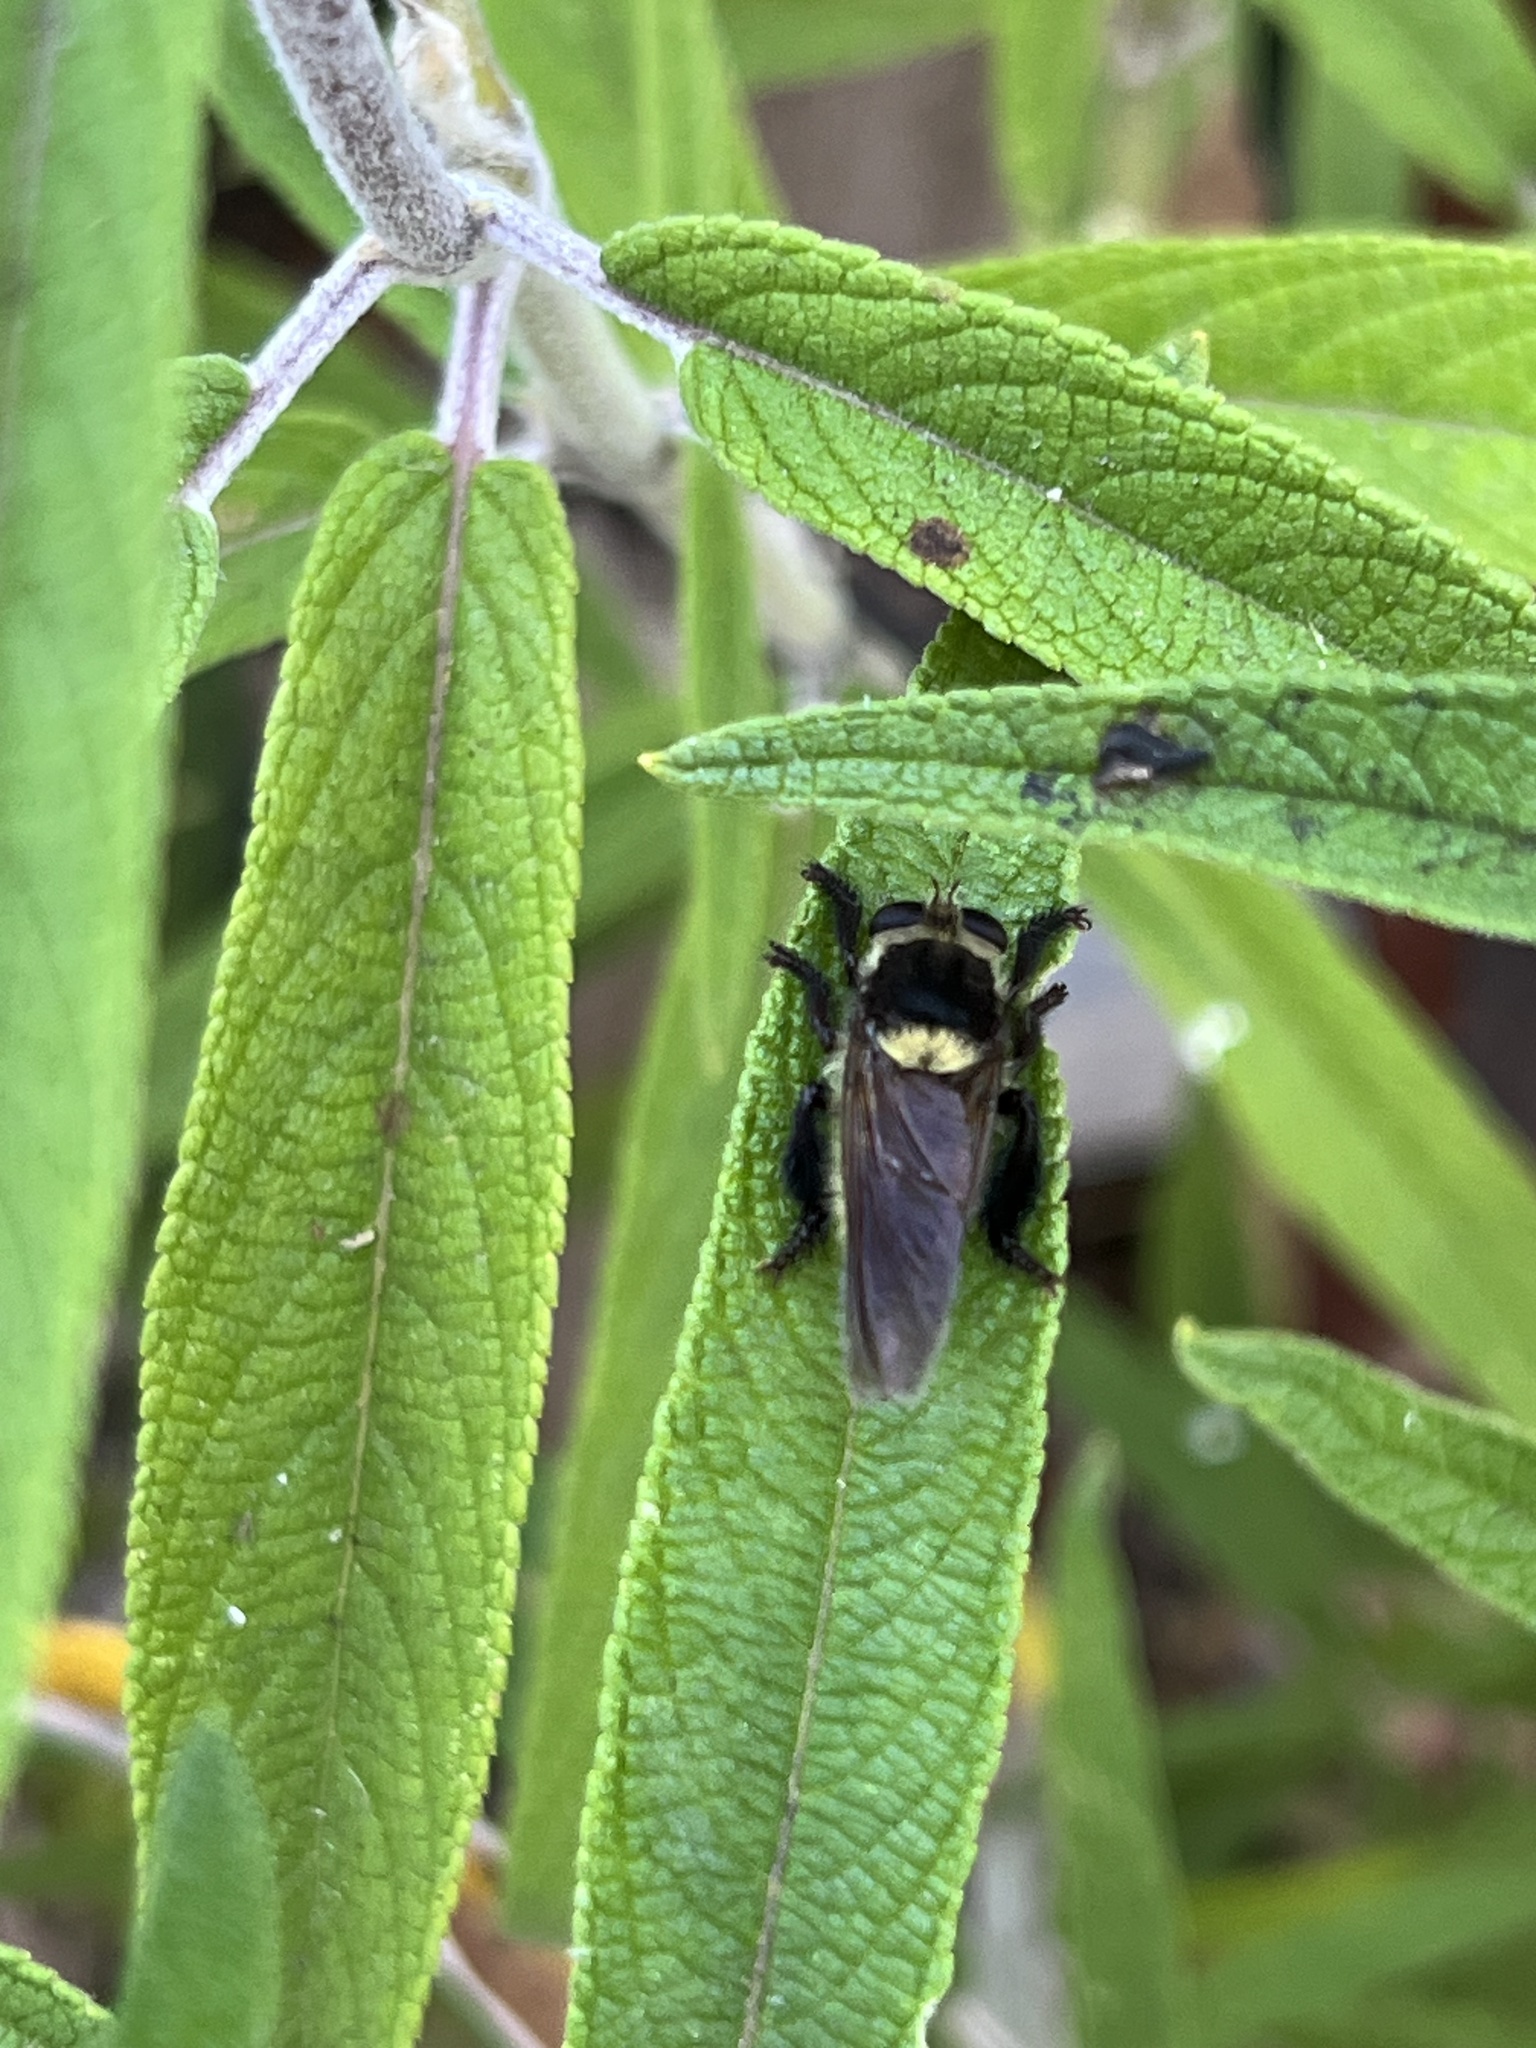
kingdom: Animalia
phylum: Arthropoda
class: Insecta
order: Diptera
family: Asilidae
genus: Mallophora
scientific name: Mallophora fautrix
